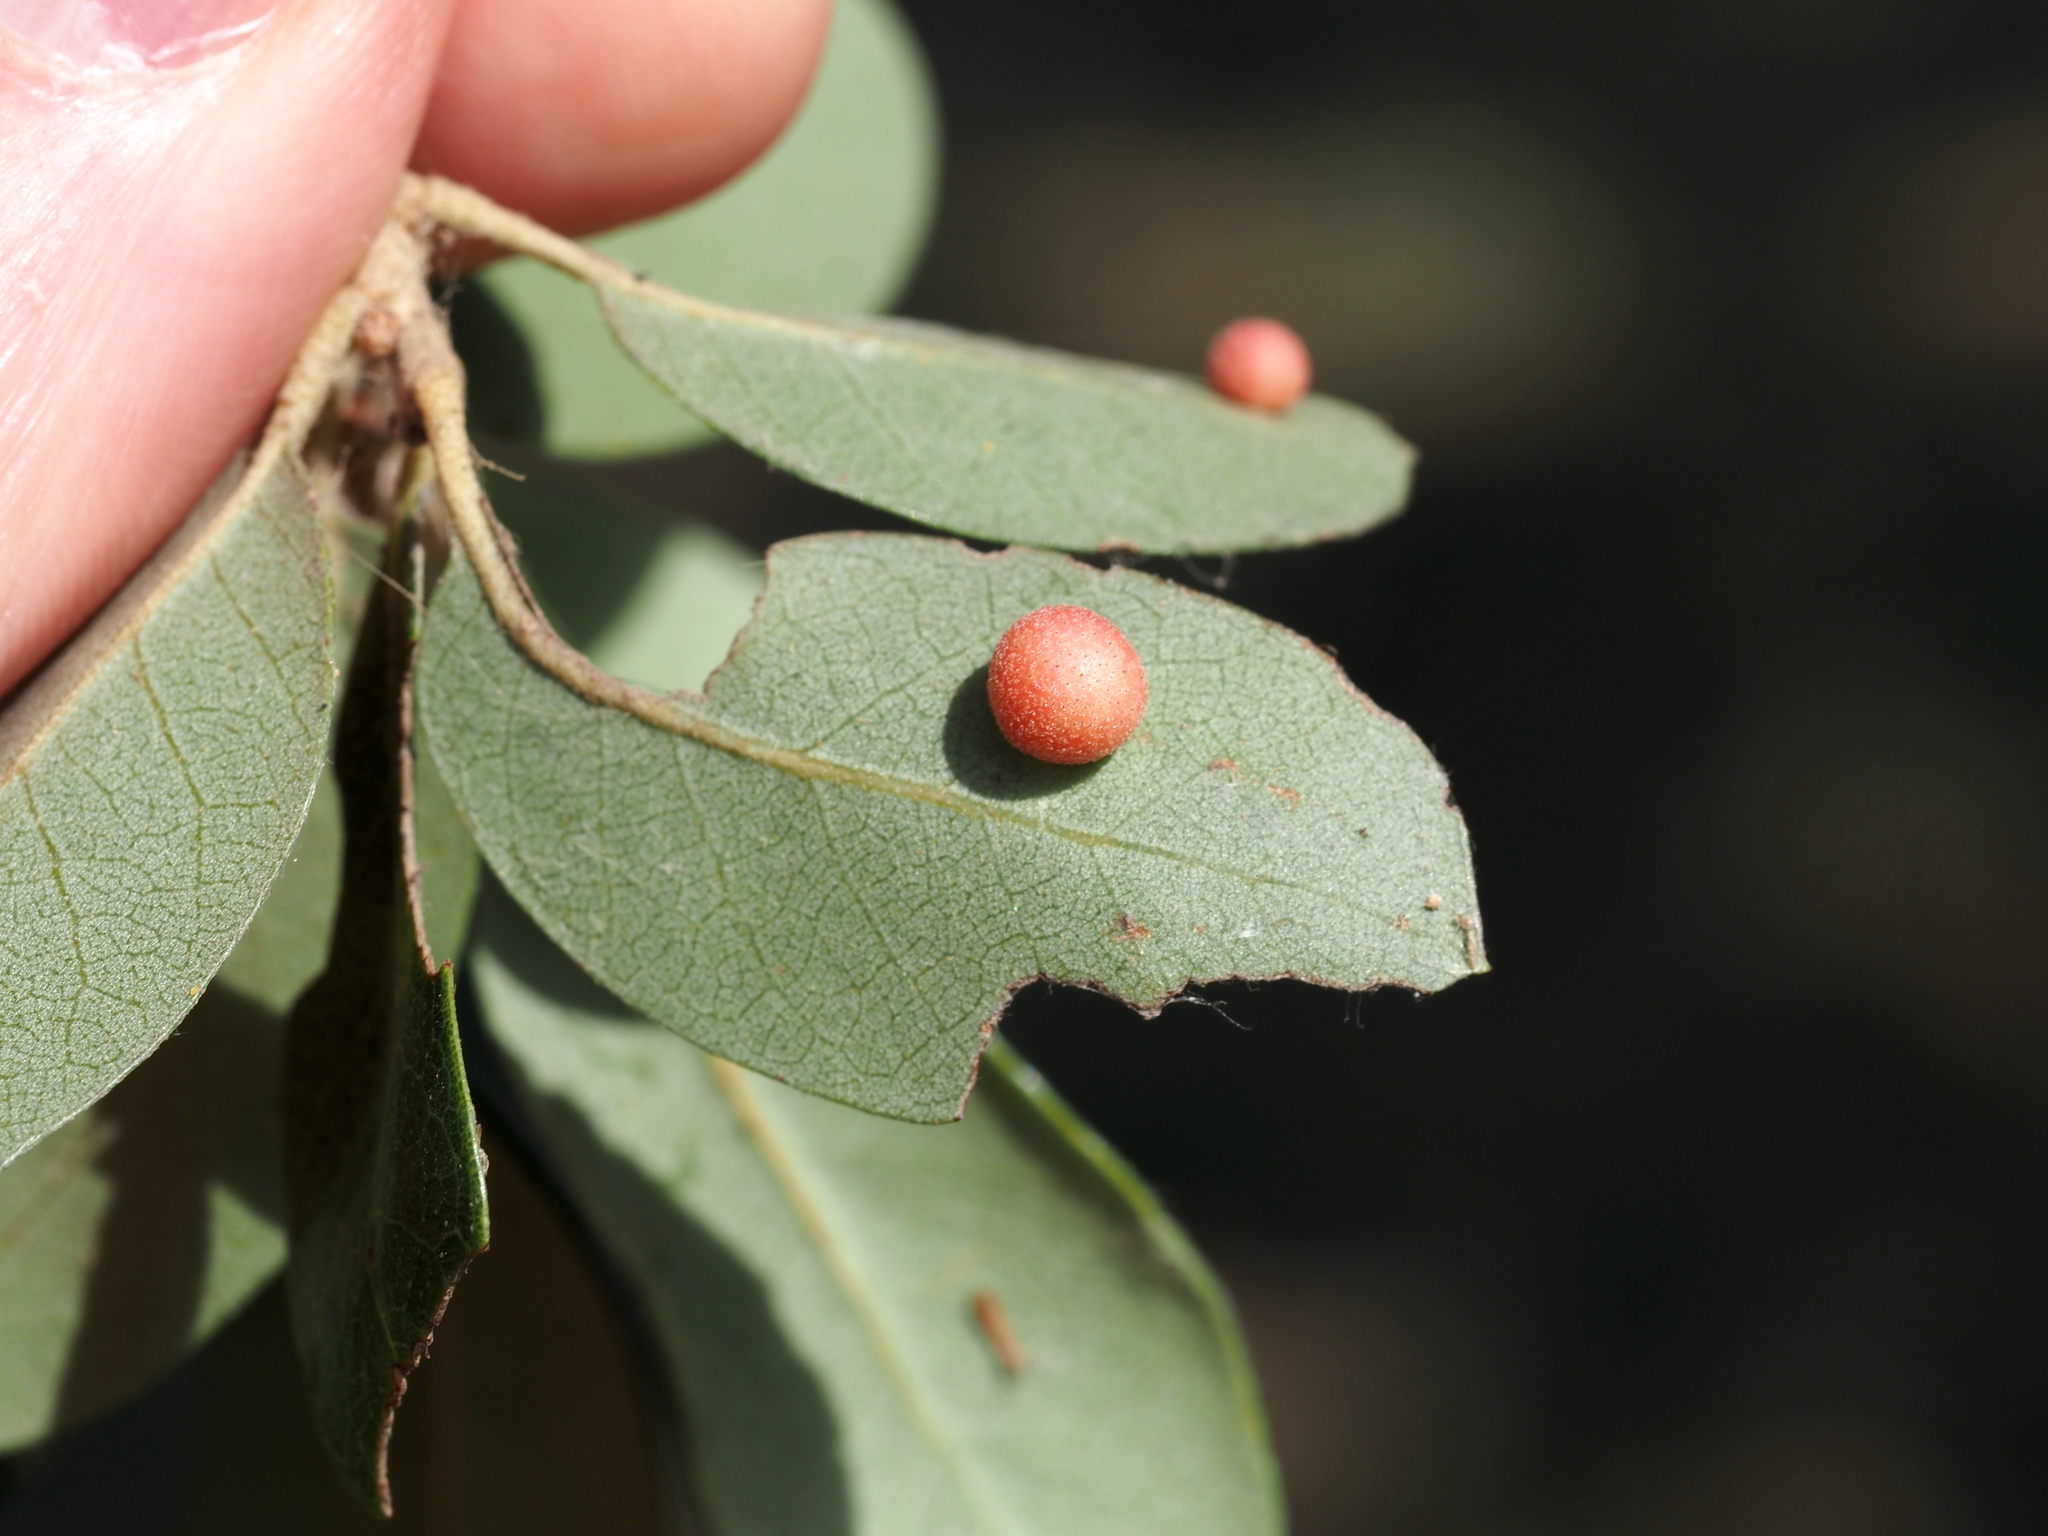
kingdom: Animalia
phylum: Arthropoda
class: Insecta
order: Hymenoptera
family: Cynipidae
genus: Belonocnema
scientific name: Belonocnema kinseyi
